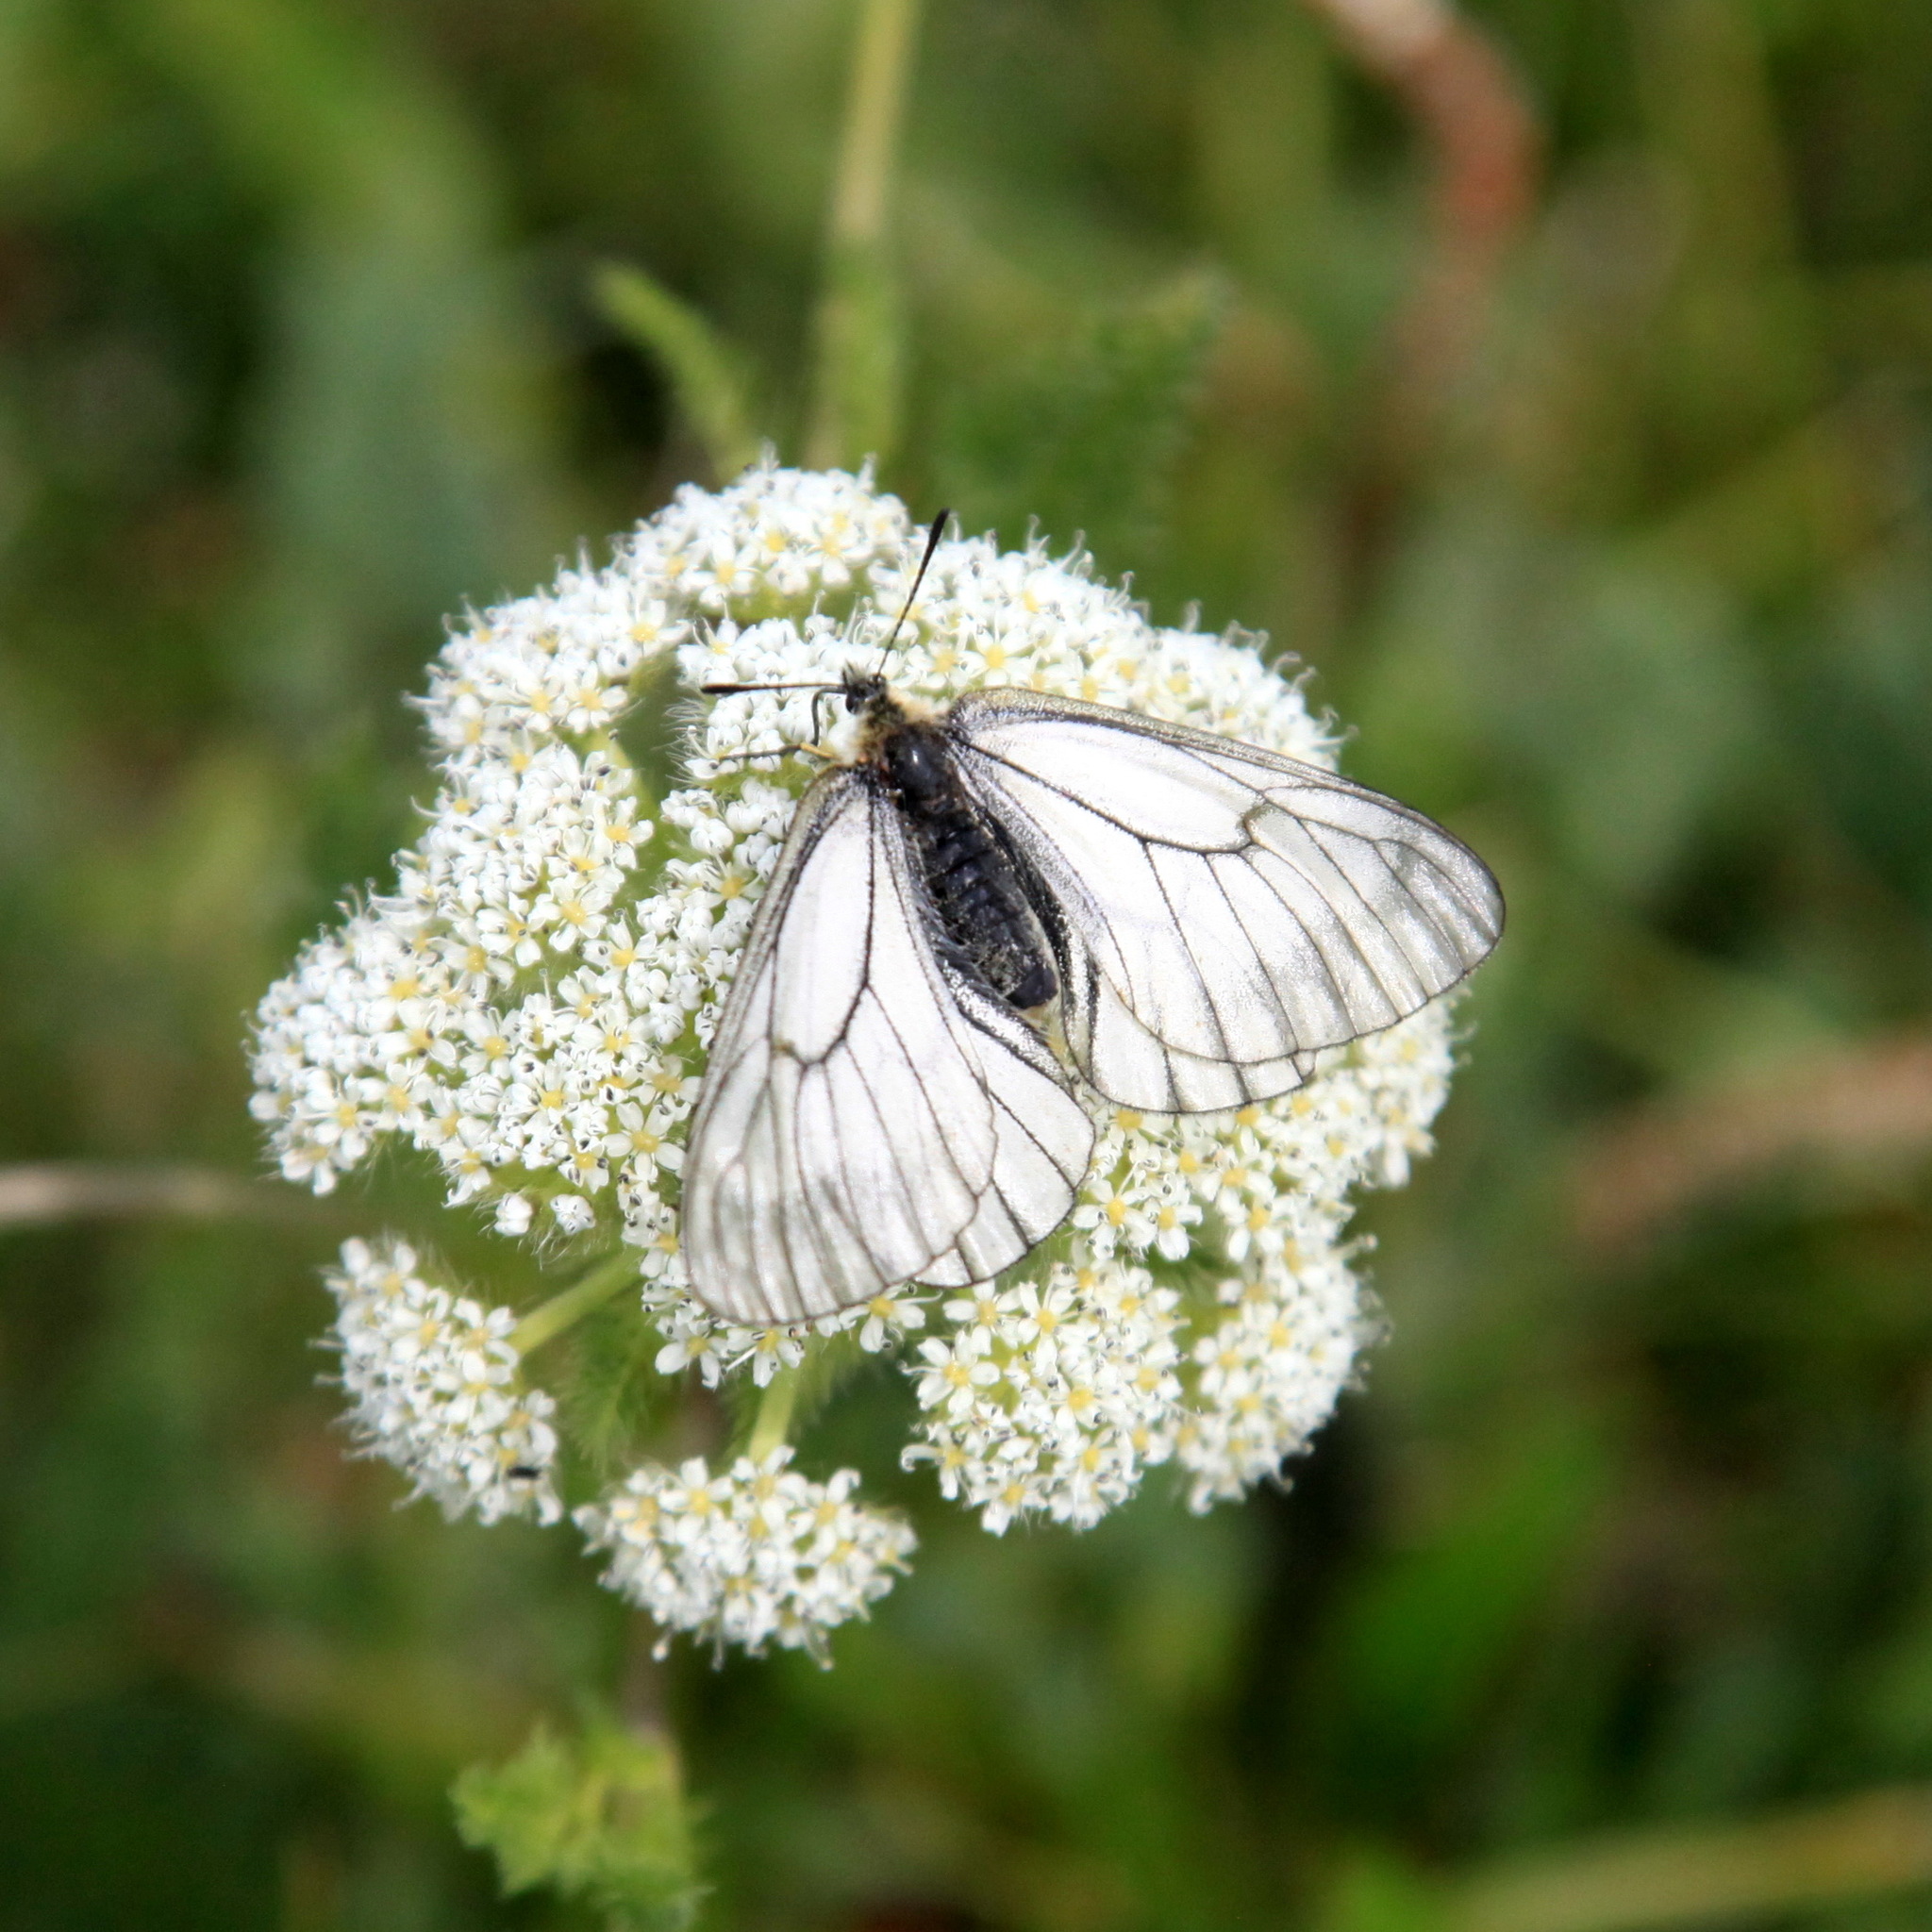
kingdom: Animalia
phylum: Arthropoda
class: Insecta
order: Lepidoptera
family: Papilionidae
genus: Parnassius
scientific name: Parnassius stubbendorfii
